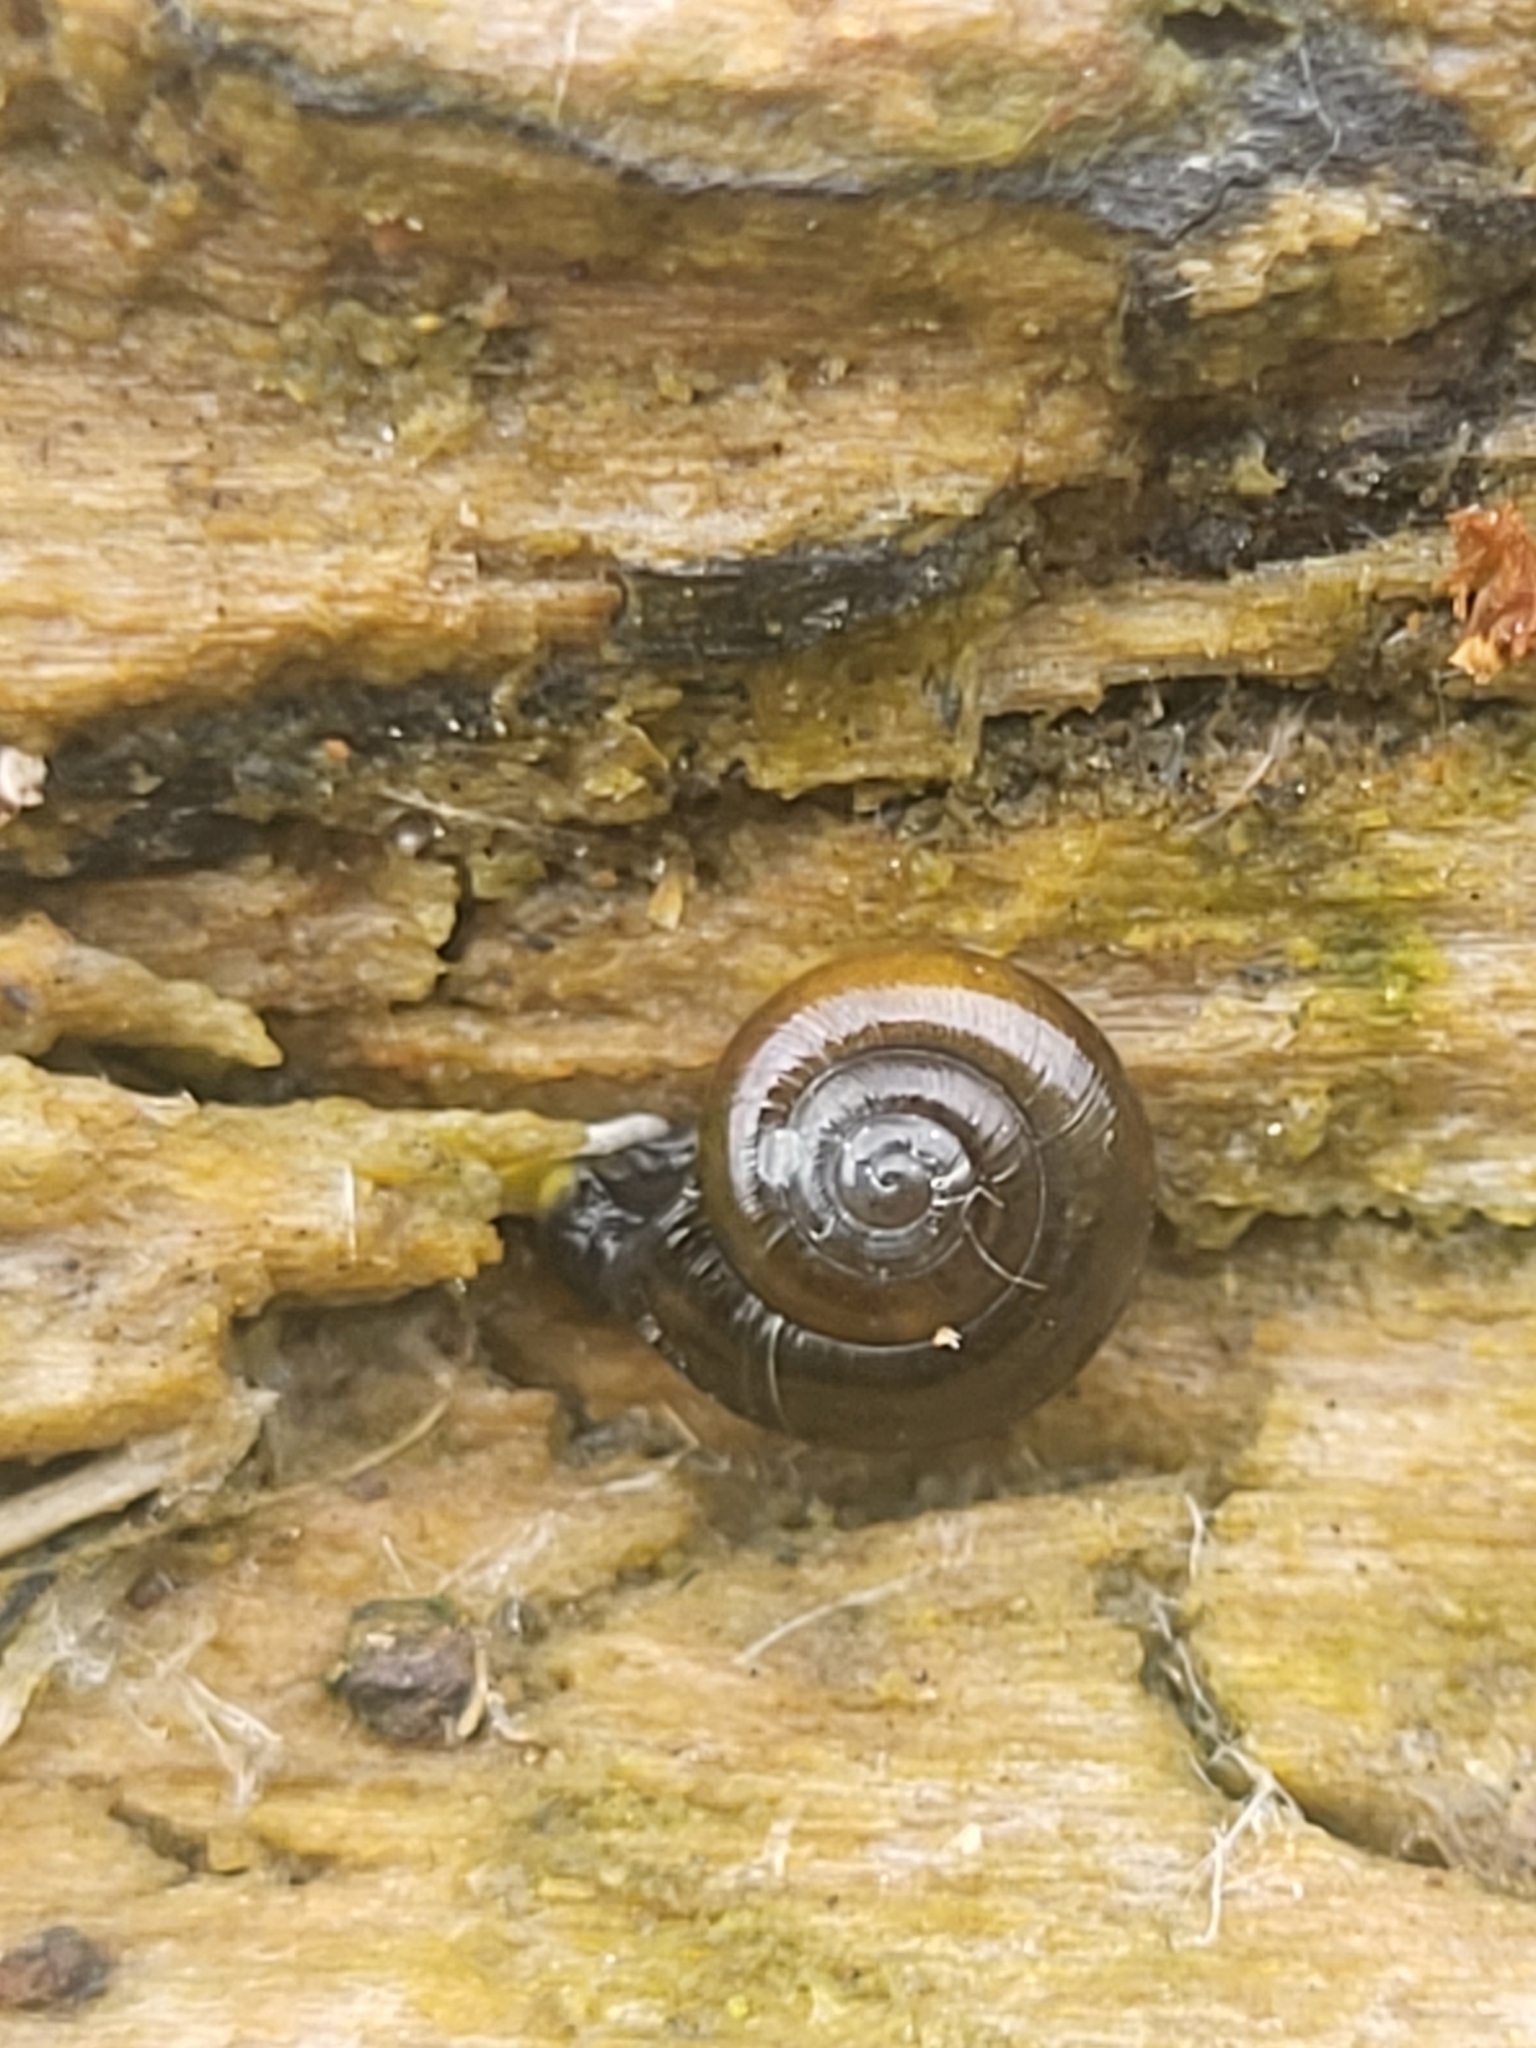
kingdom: Animalia
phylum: Mollusca
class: Gastropoda
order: Stylommatophora
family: Gastrodontidae
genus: Zonitoides
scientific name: Zonitoides nitidus
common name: Shiny glass snail
